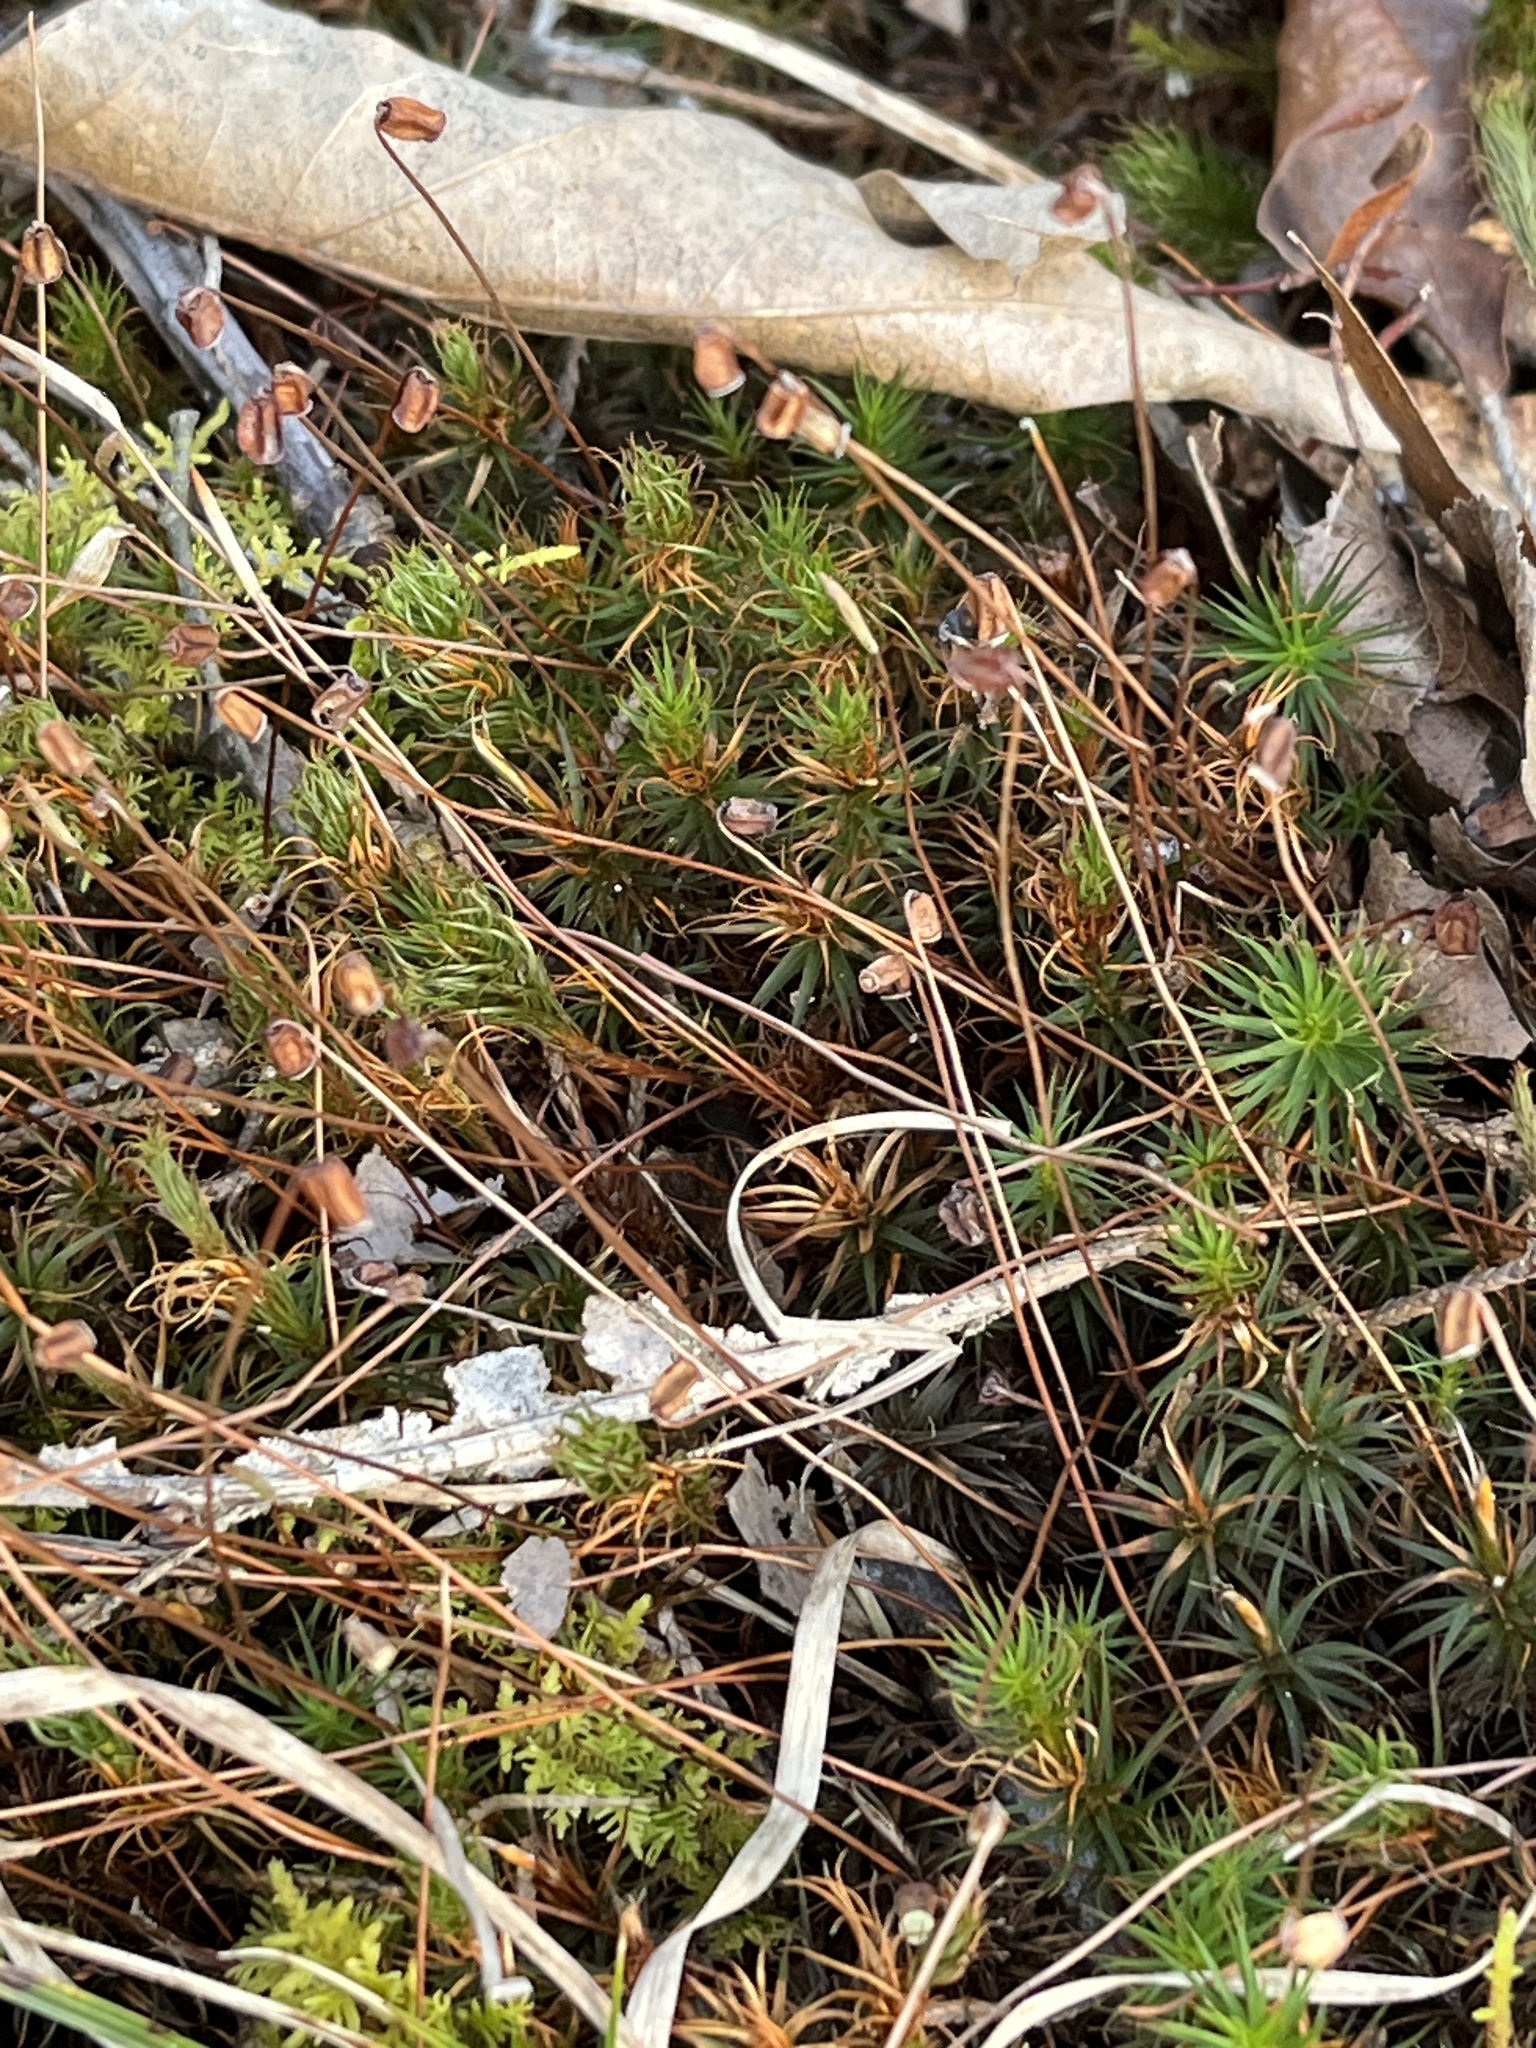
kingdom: Plantae
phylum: Bryophyta
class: Polytrichopsida
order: Polytrichales
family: Polytrichaceae
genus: Polytrichum
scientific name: Polytrichum commune
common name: Common haircap
